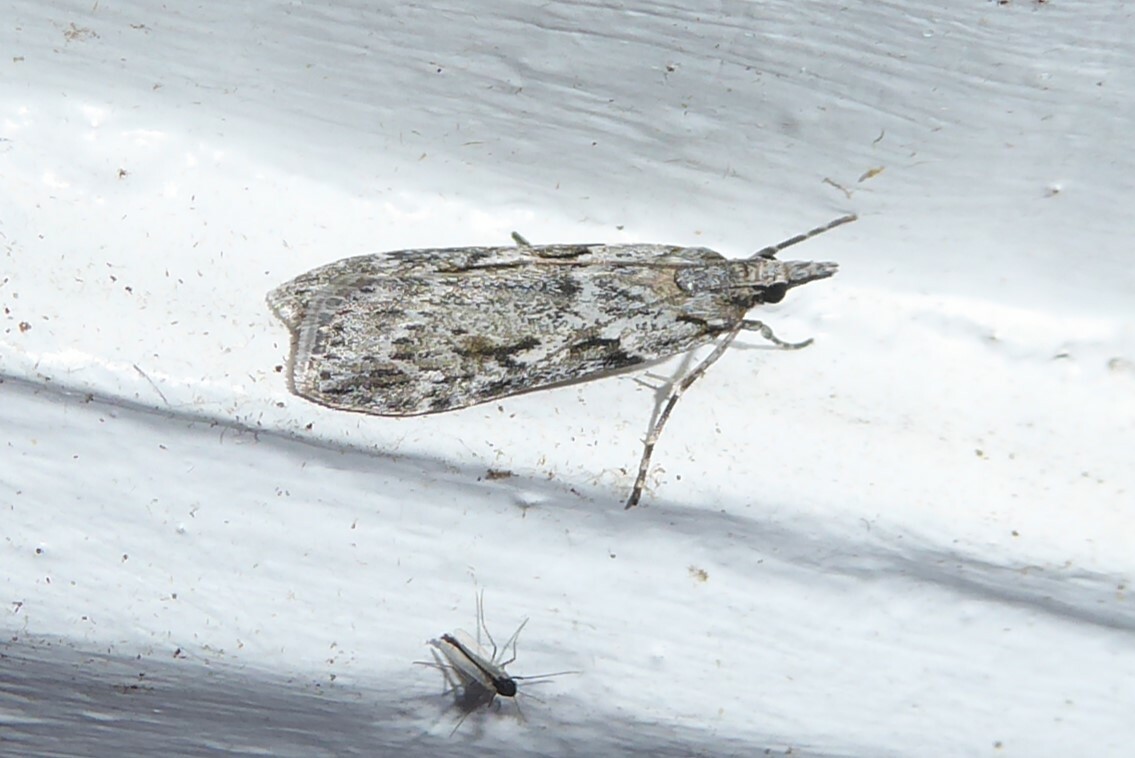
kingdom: Animalia
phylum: Arthropoda
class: Insecta
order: Lepidoptera
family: Crambidae
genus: Scoparia
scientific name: Scoparia halopis
